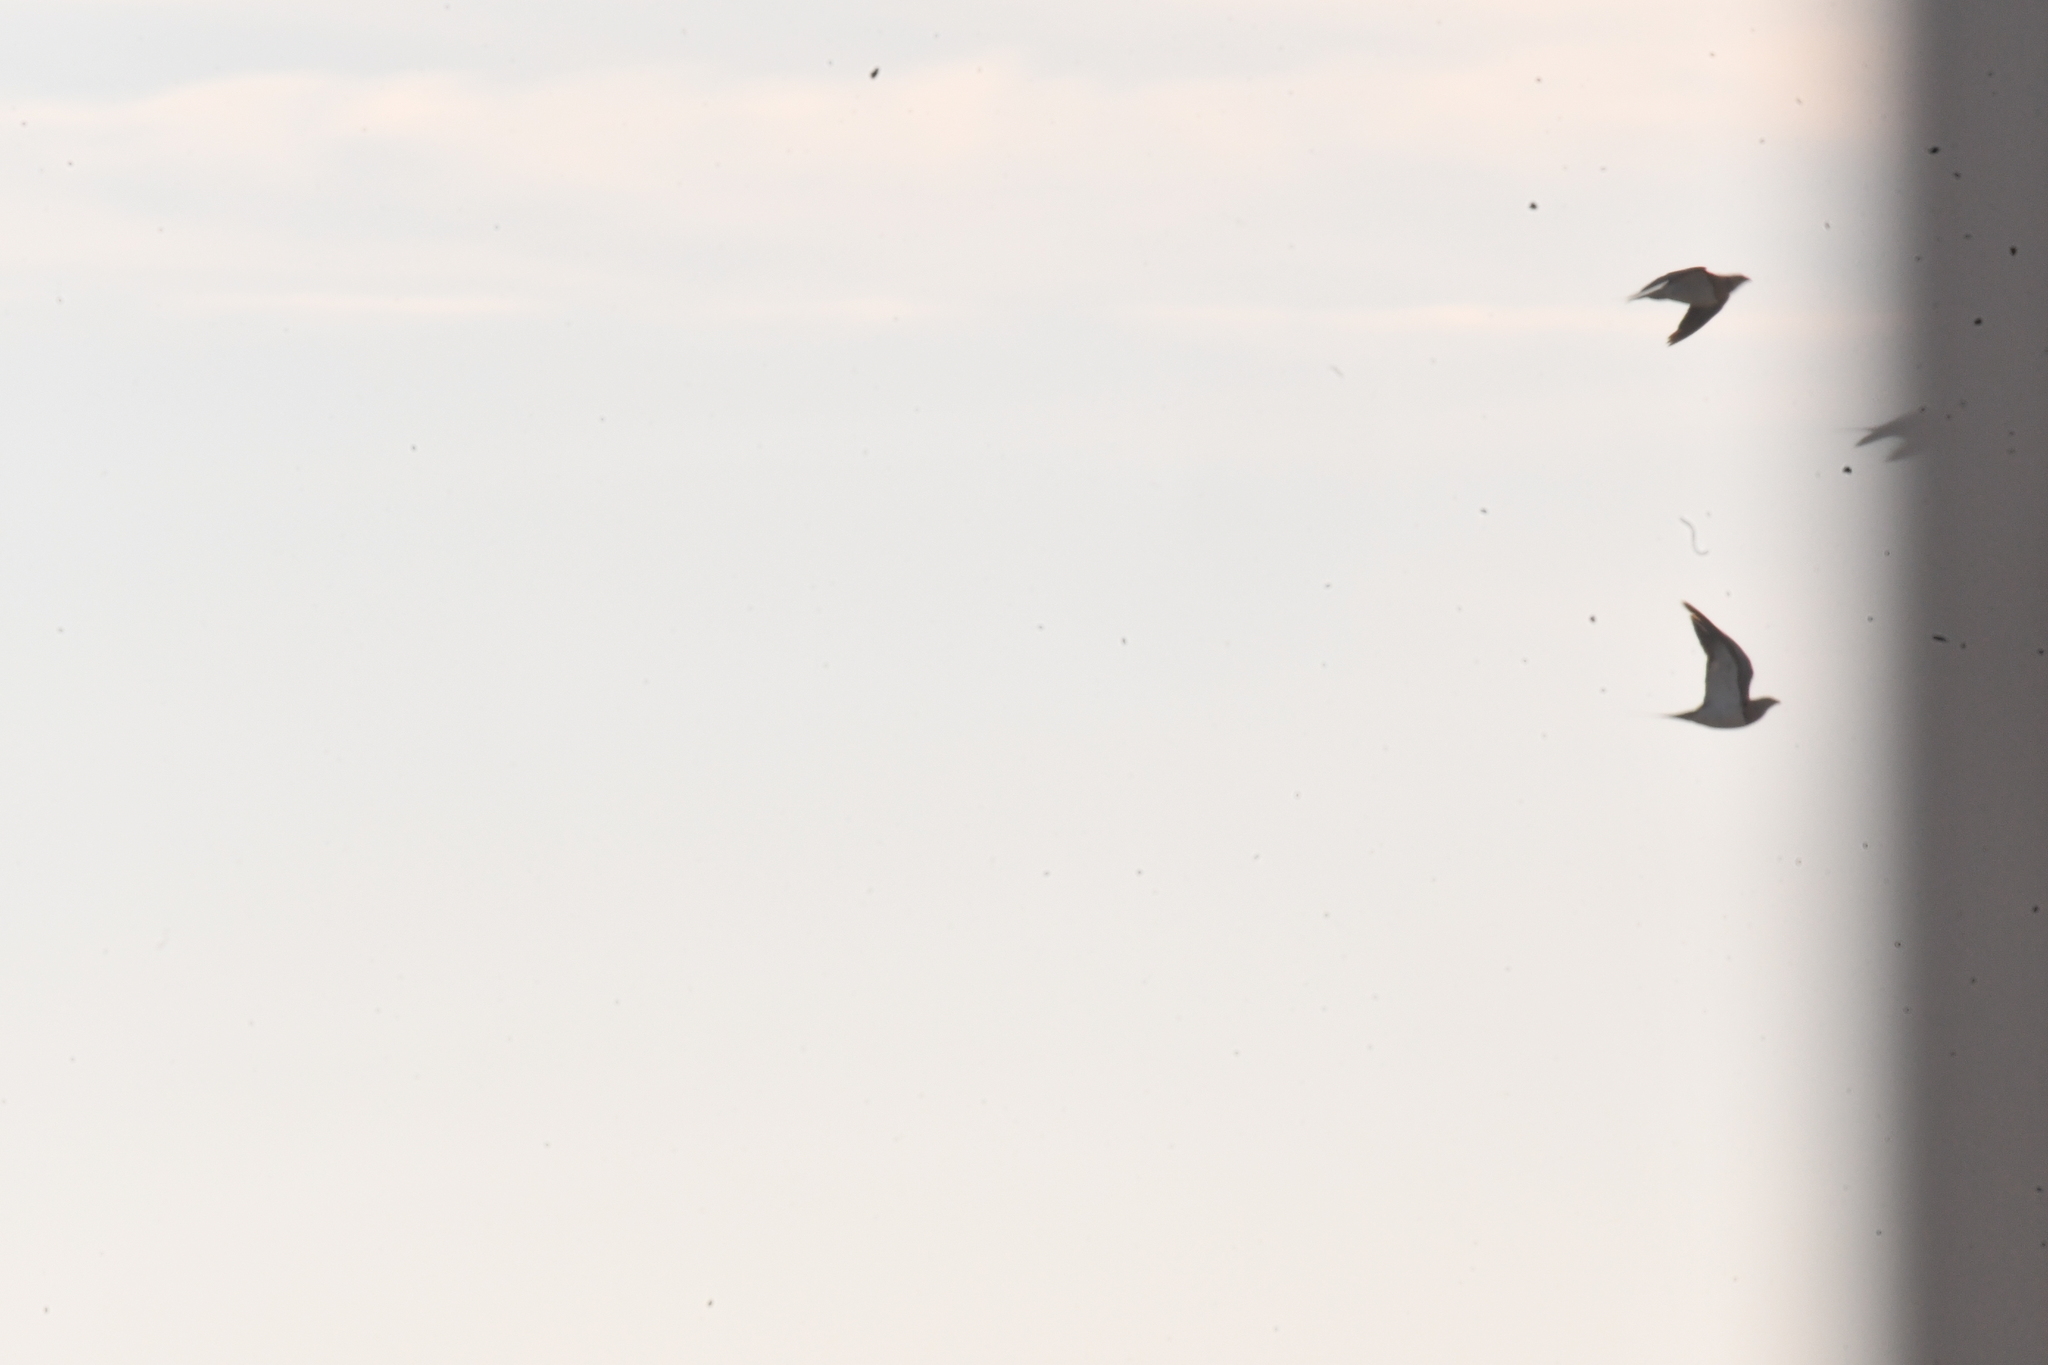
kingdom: Animalia
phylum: Chordata
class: Aves
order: Pteroclidiformes
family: Pteroclididae
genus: Pterocles
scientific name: Pterocles alchata
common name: Pin-tailed sandgrouse
